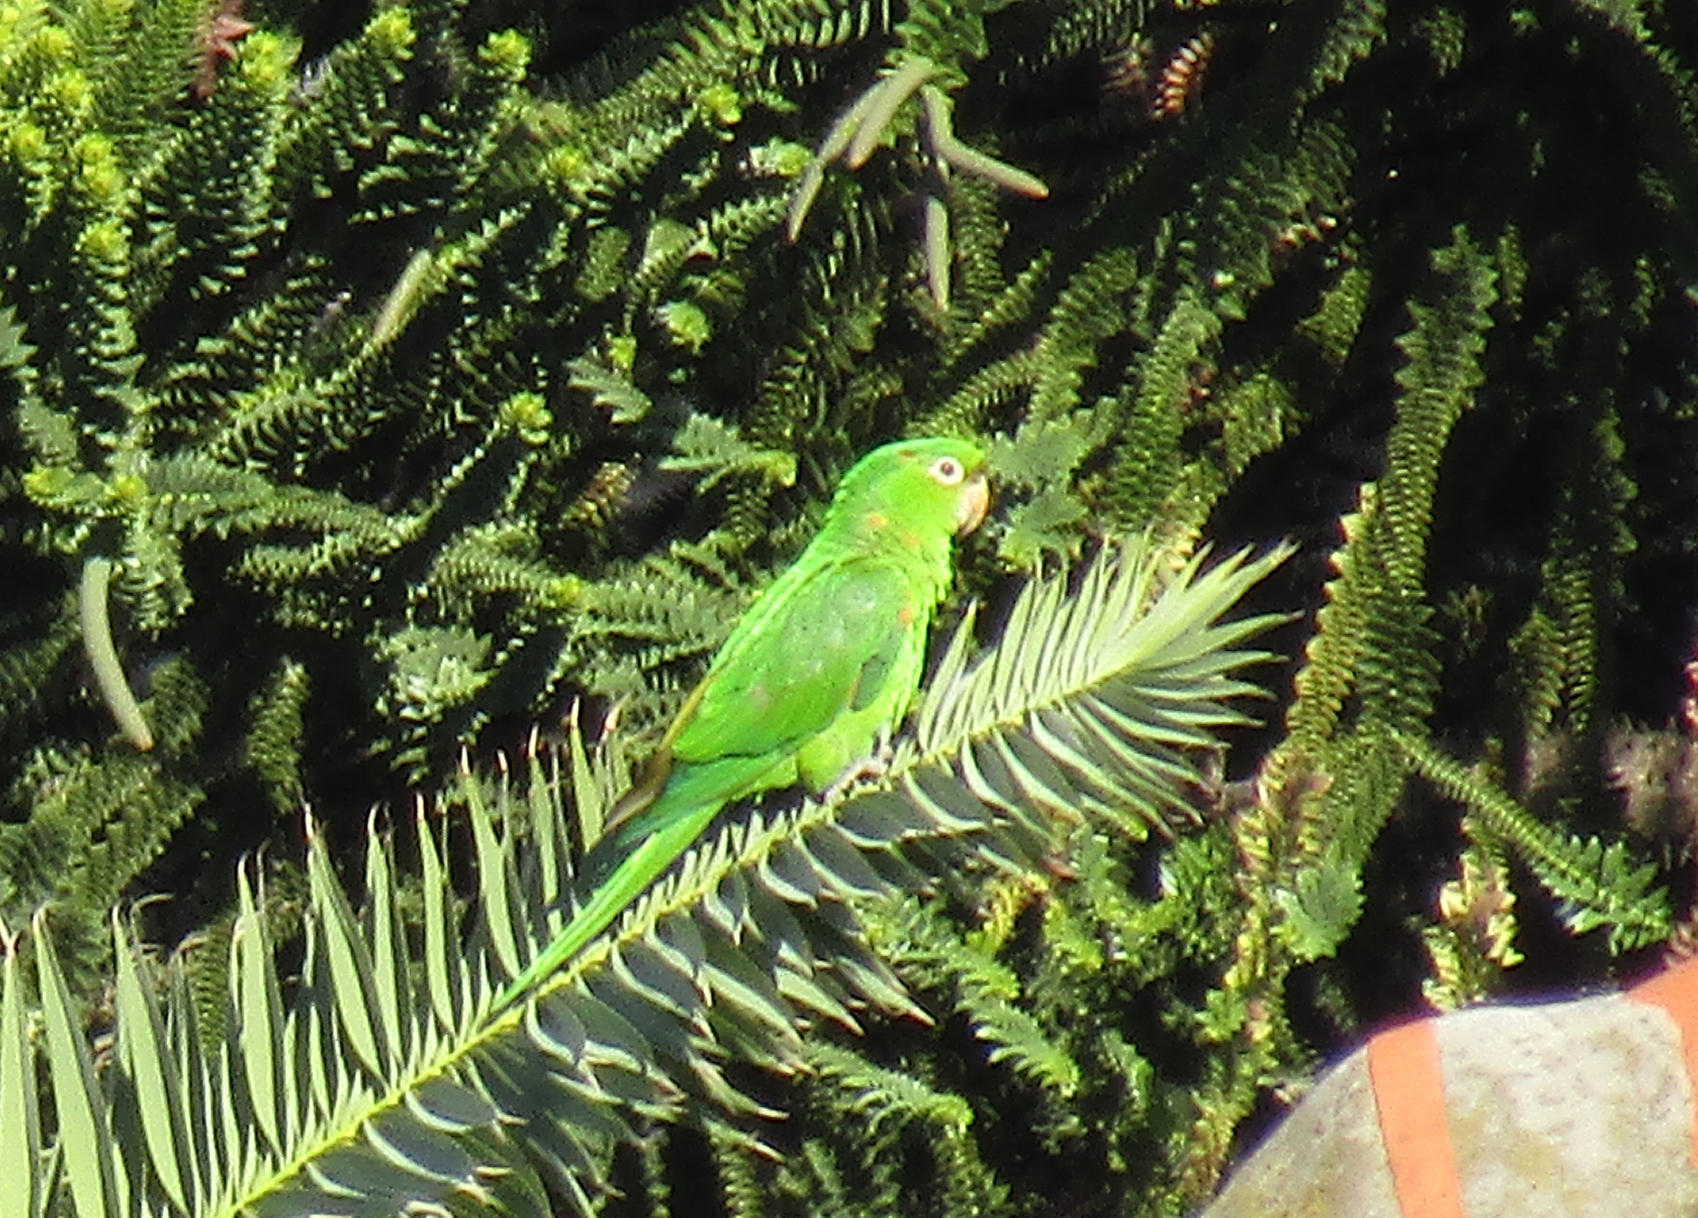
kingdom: Animalia
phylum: Chordata
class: Aves
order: Psittaciformes
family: Psittacidae
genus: Aratinga
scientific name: Aratinga leucophthalma
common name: White-eyed parakeet
